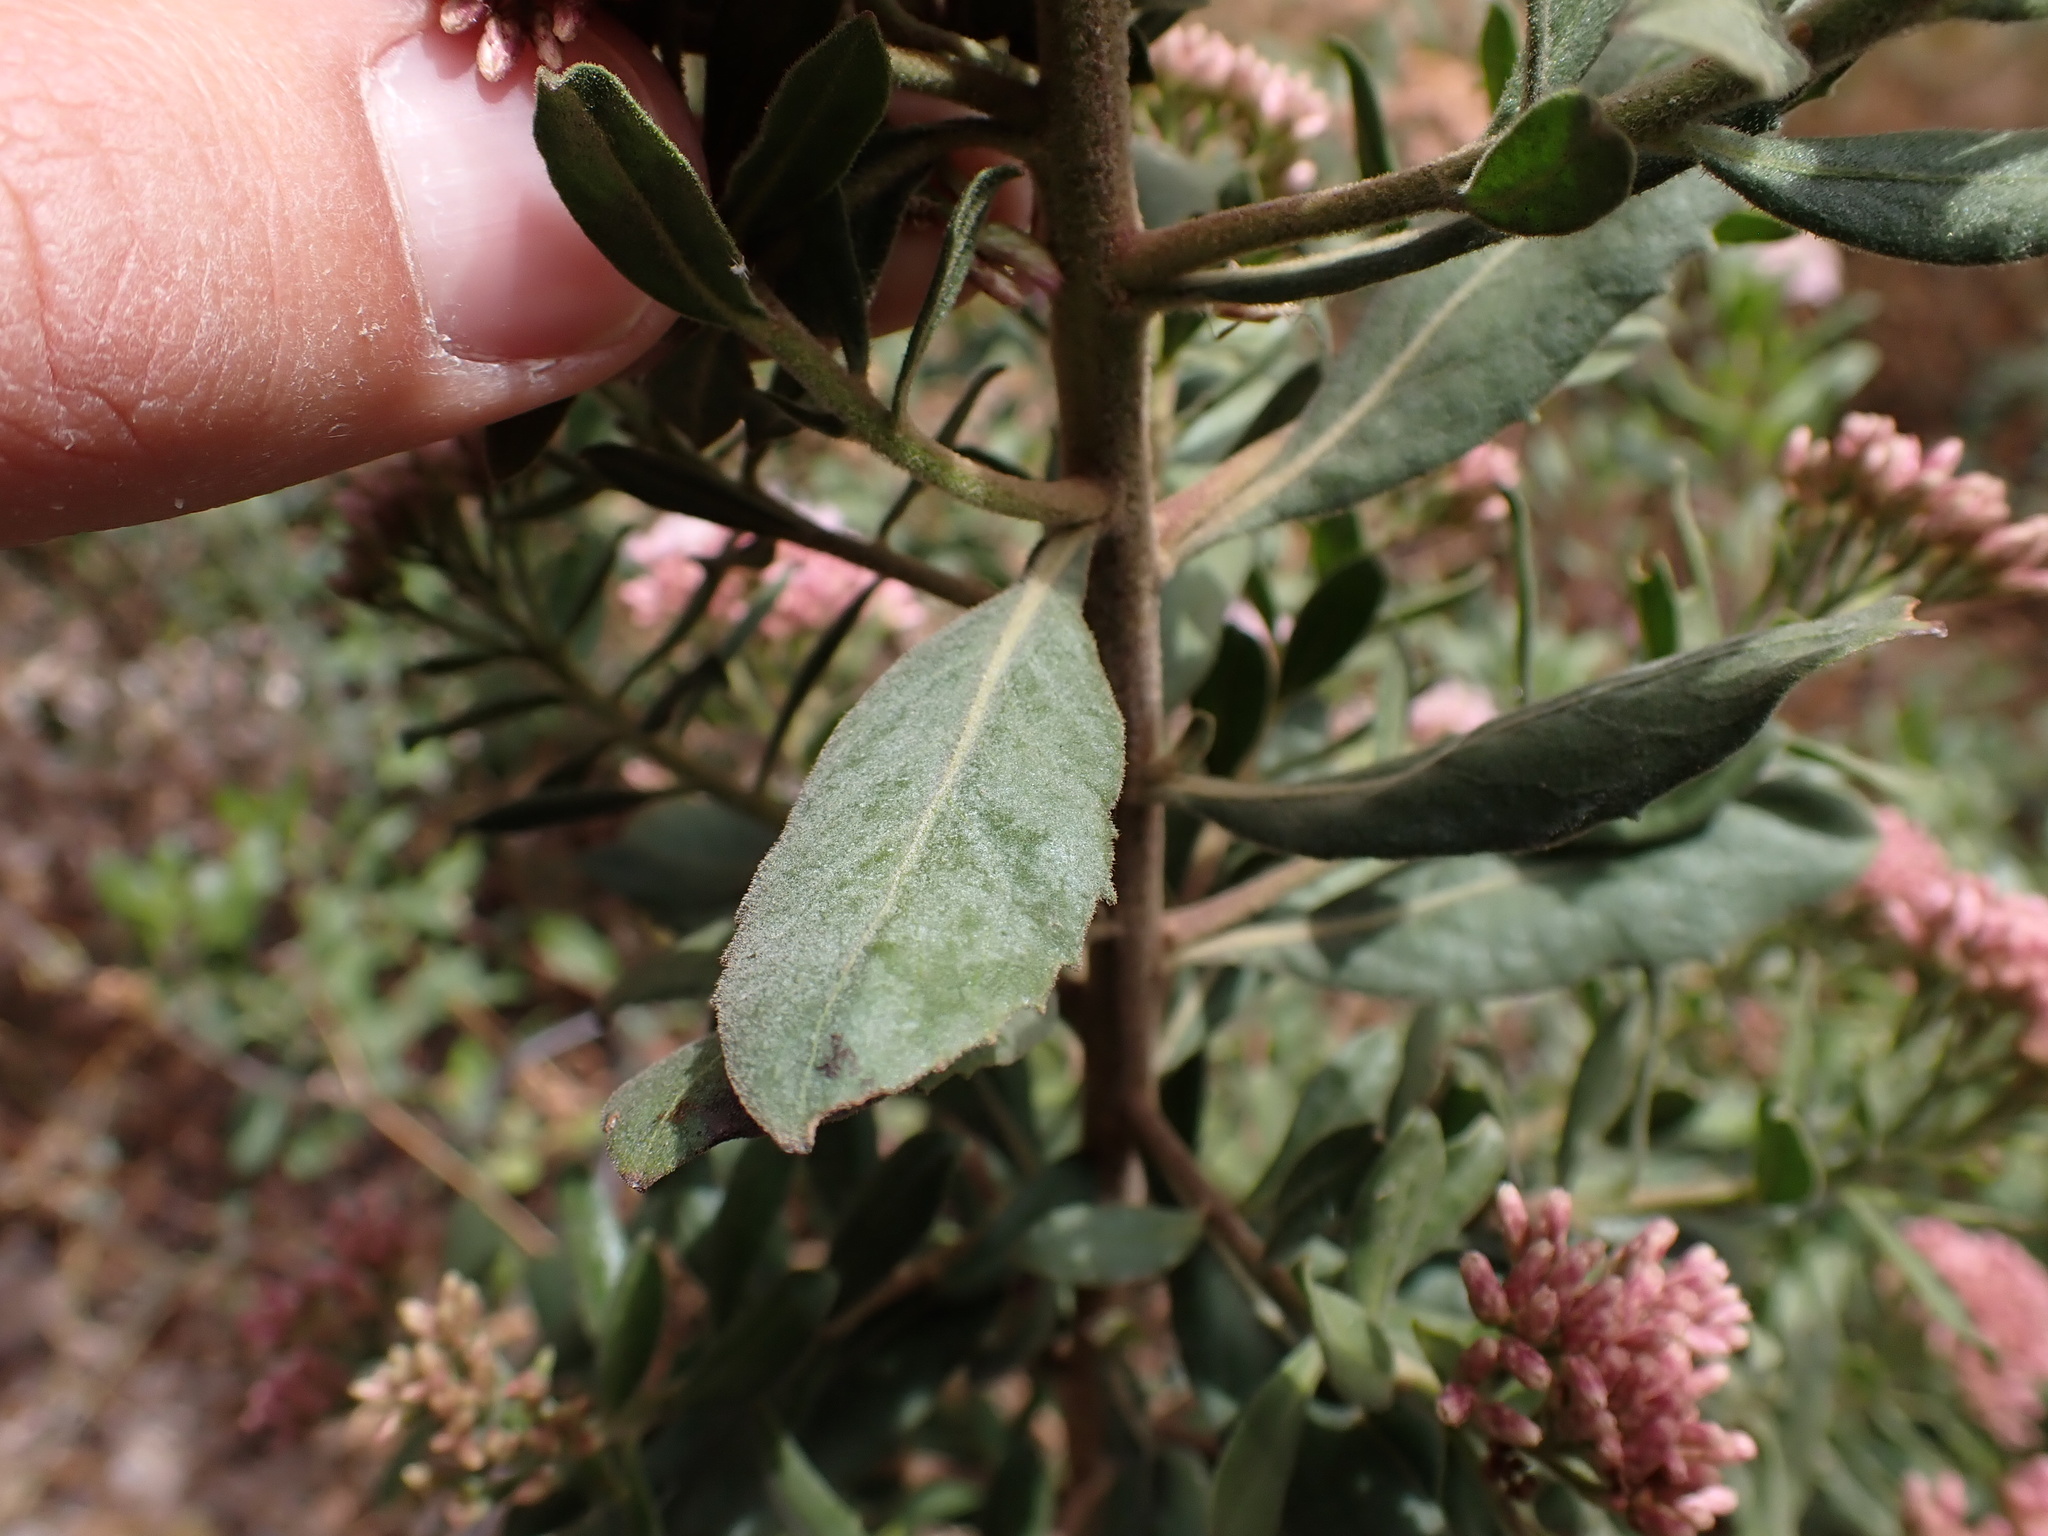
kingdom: Plantae
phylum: Tracheophyta
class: Magnoliopsida
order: Asterales
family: Asteraceae
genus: Pluchea
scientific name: Pluchea zamalloae
